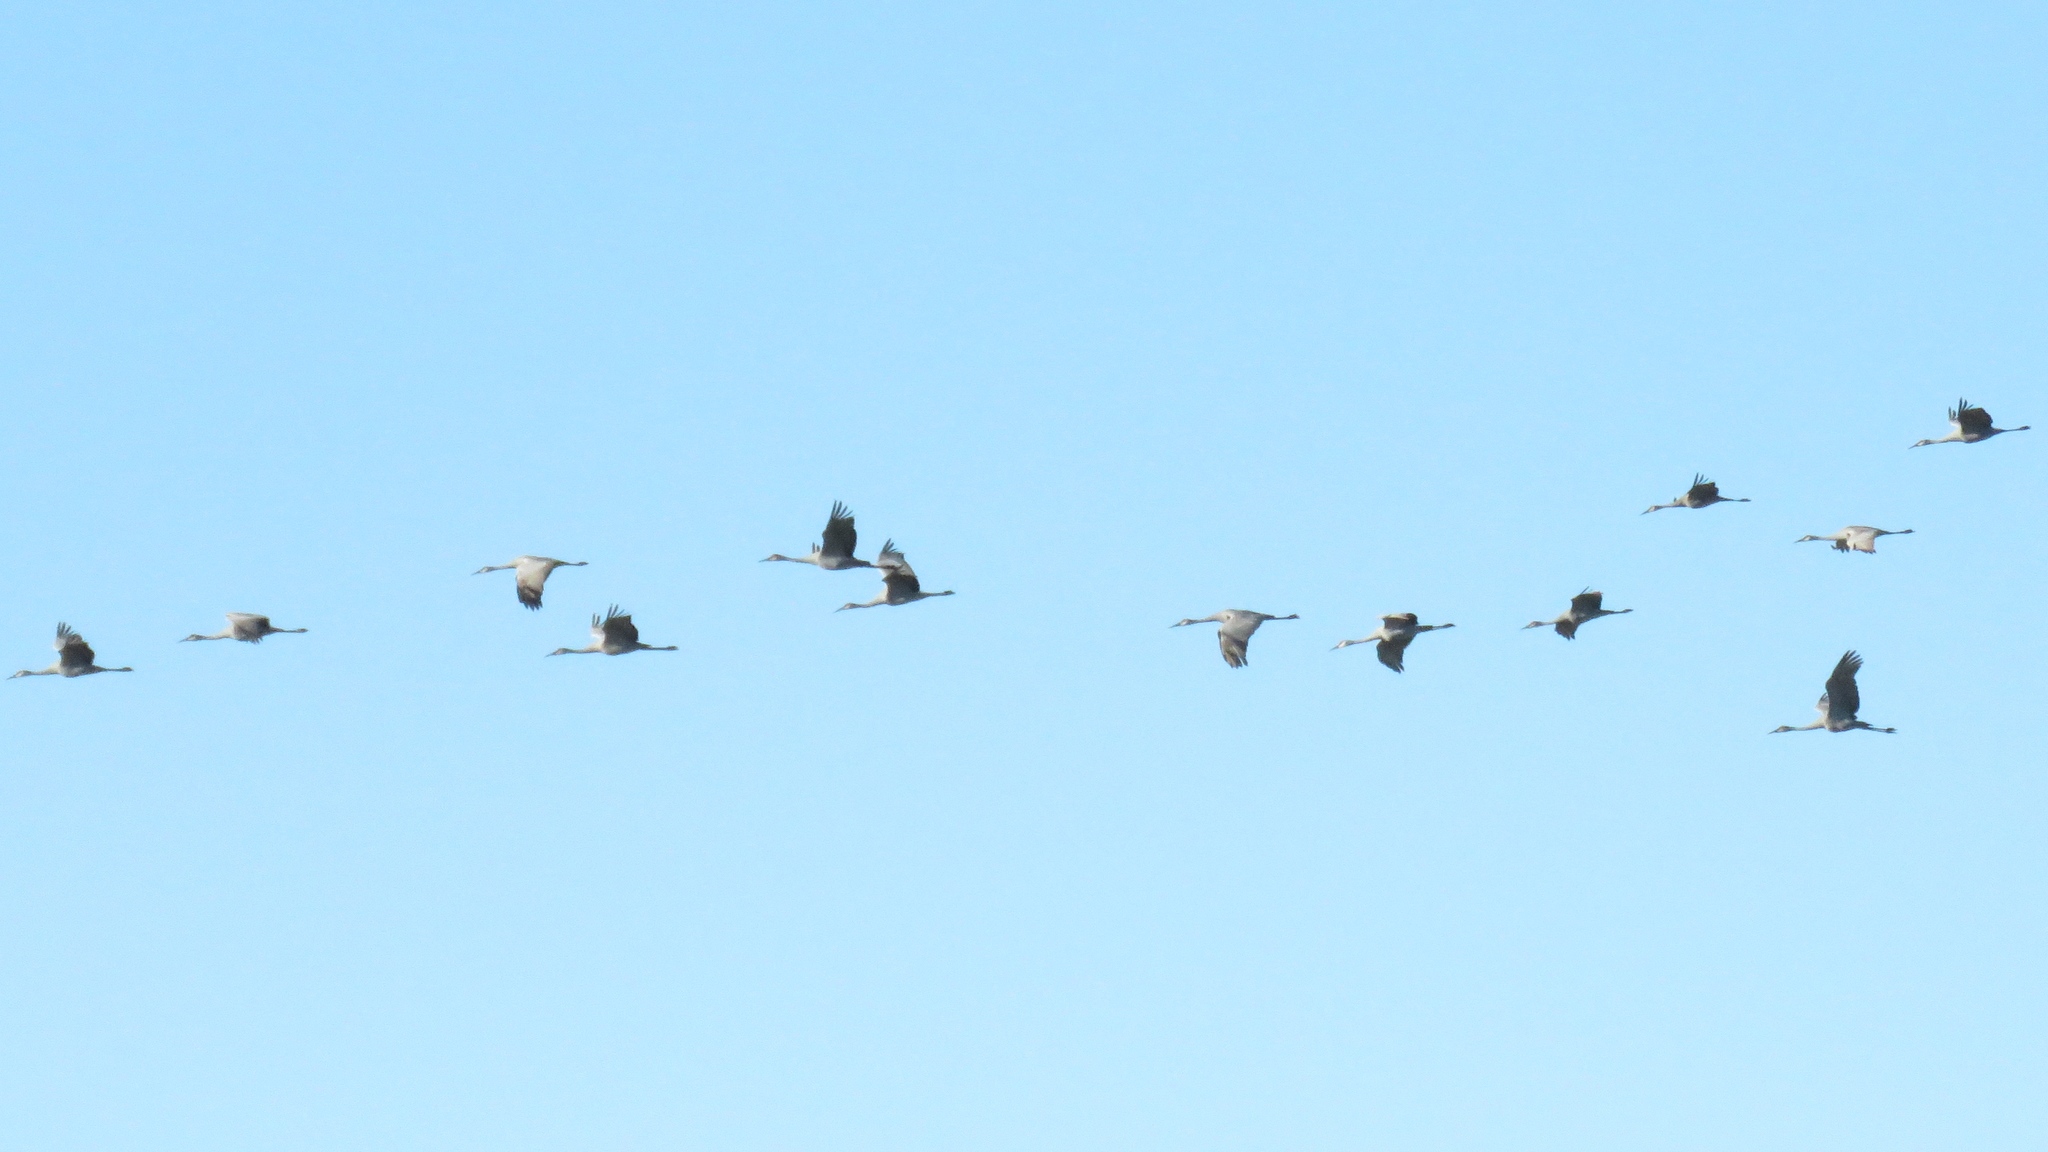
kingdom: Animalia
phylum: Chordata
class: Aves
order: Gruiformes
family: Gruidae
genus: Grus
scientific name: Grus canadensis
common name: Sandhill crane
